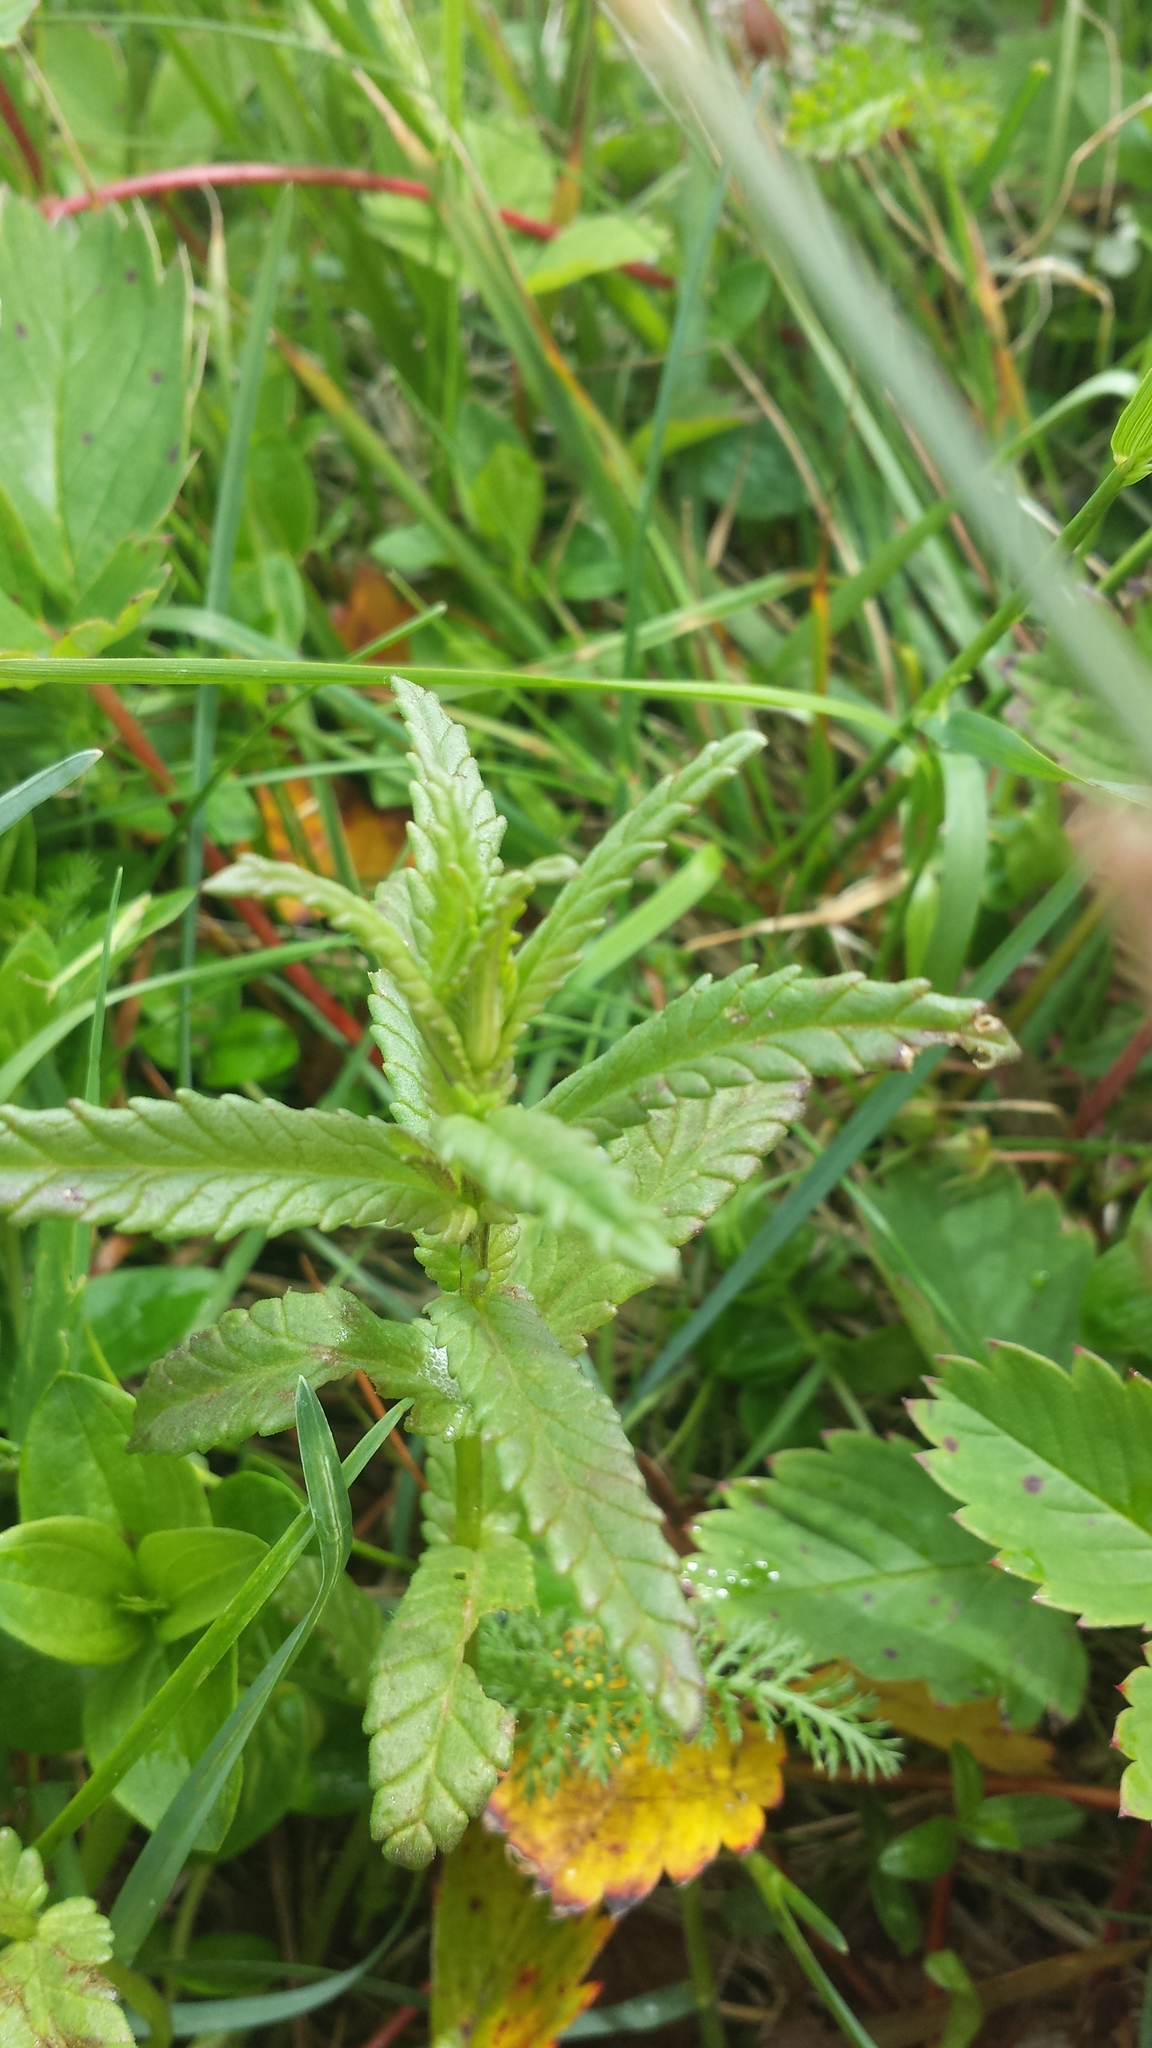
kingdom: Plantae
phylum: Tracheophyta
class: Magnoliopsida
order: Lamiales
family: Orobanchaceae
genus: Rhinanthus
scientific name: Rhinanthus minor
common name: Yellow-rattle
